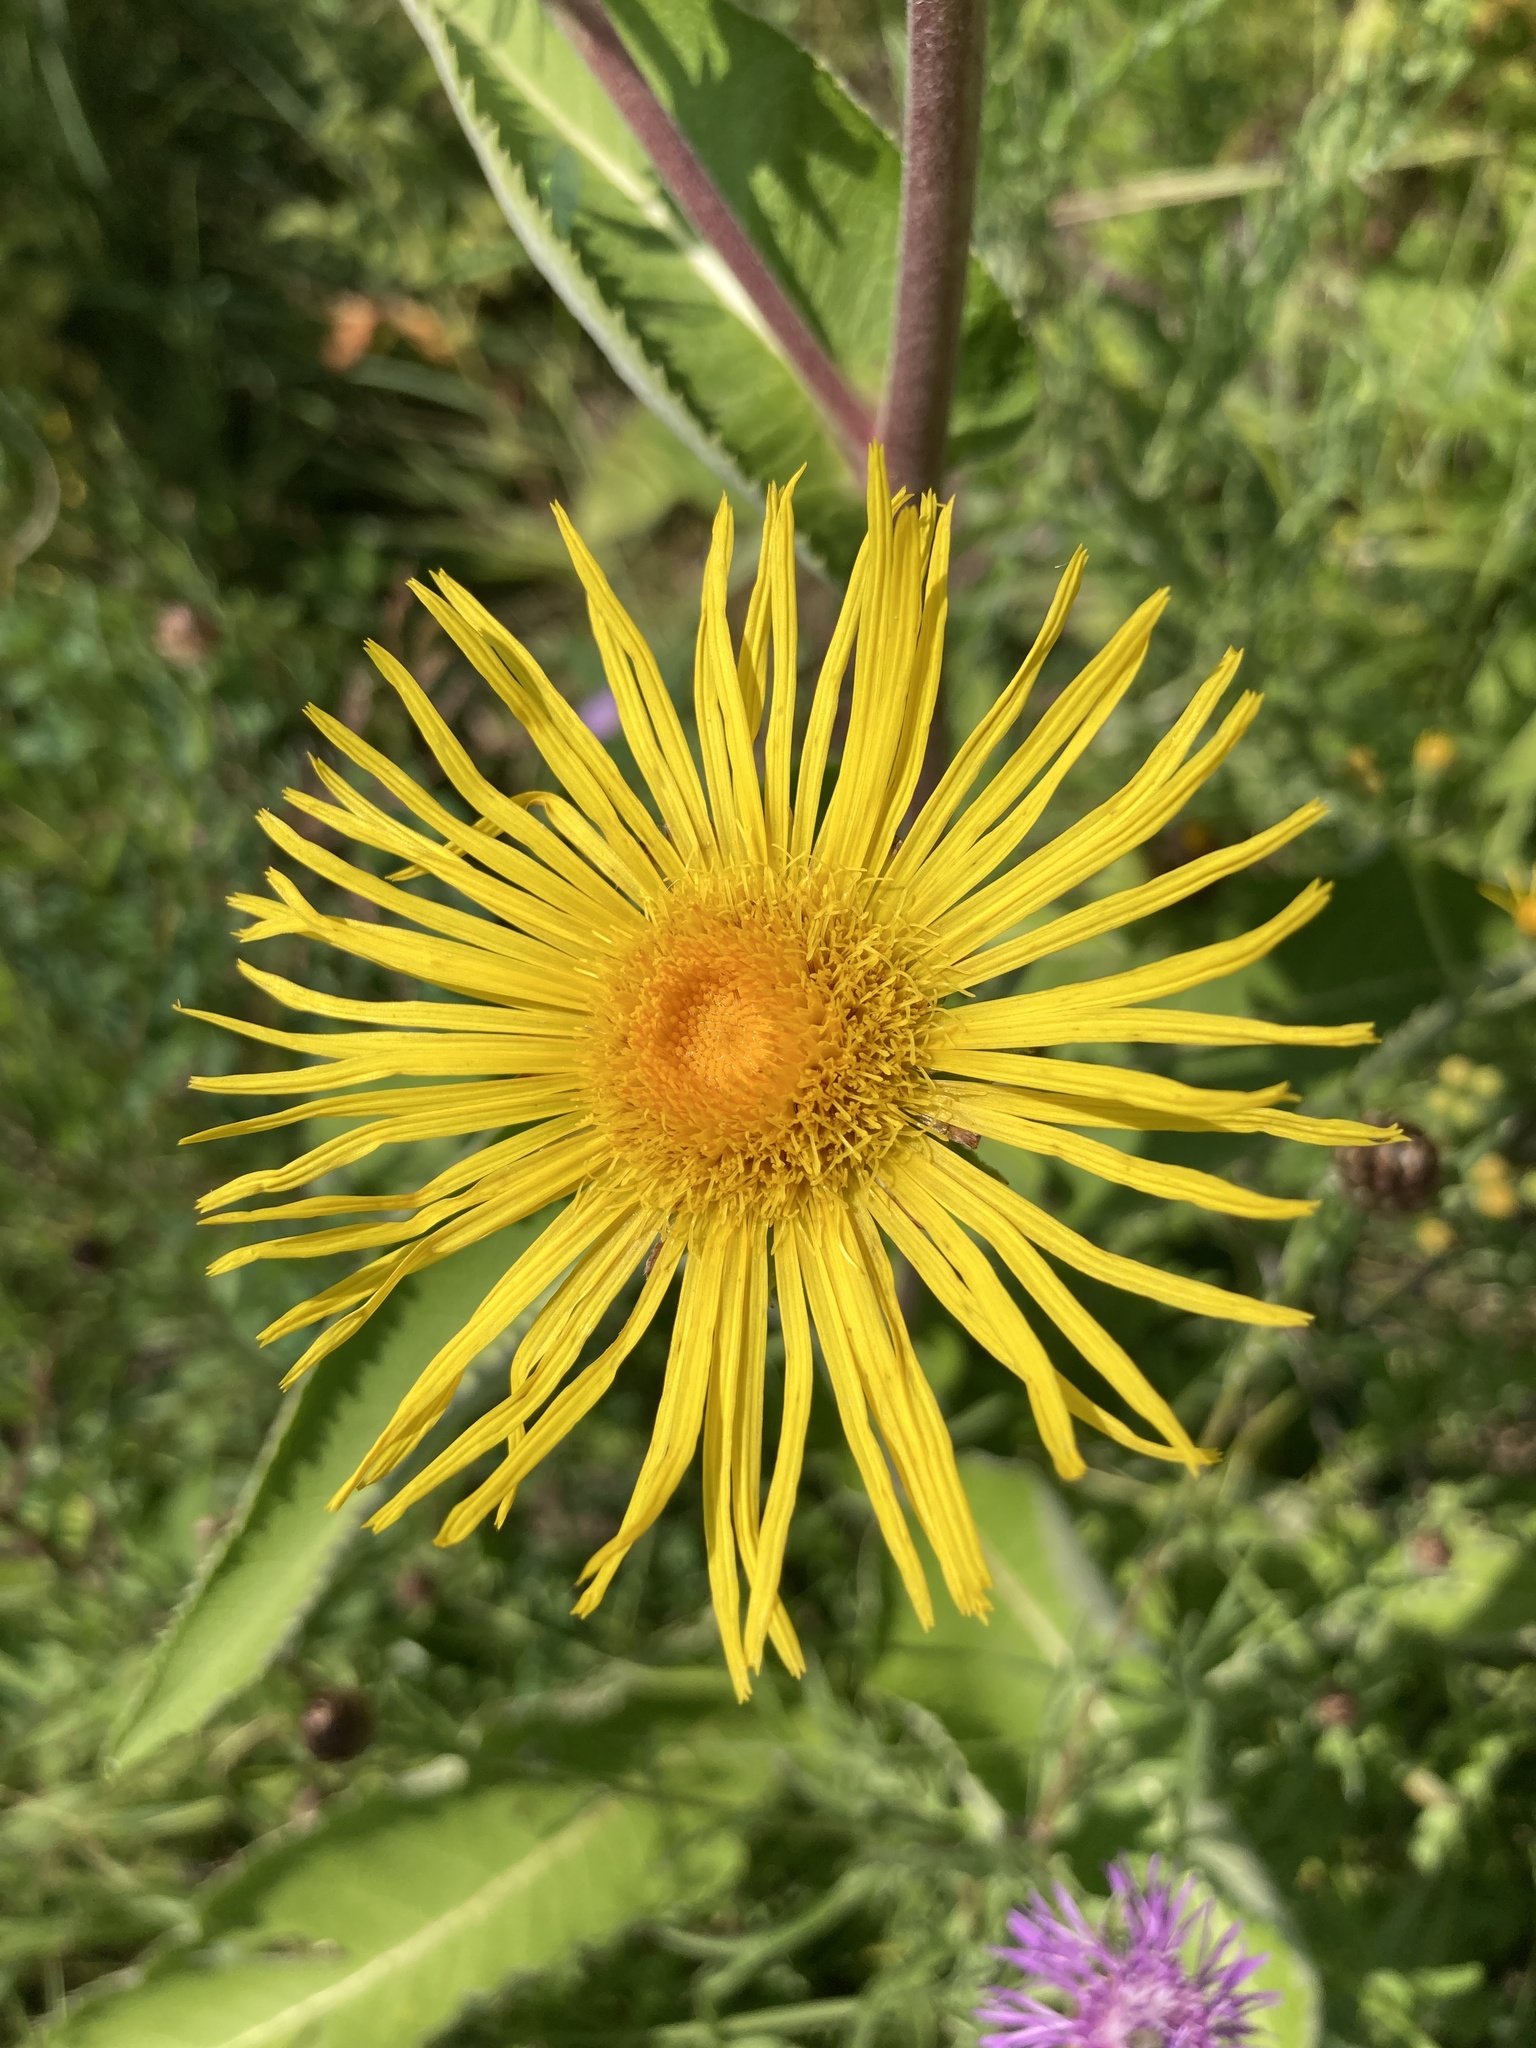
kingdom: Plantae
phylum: Tracheophyta
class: Magnoliopsida
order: Asterales
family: Asteraceae
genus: Inula
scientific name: Inula helenium
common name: Elecampane
